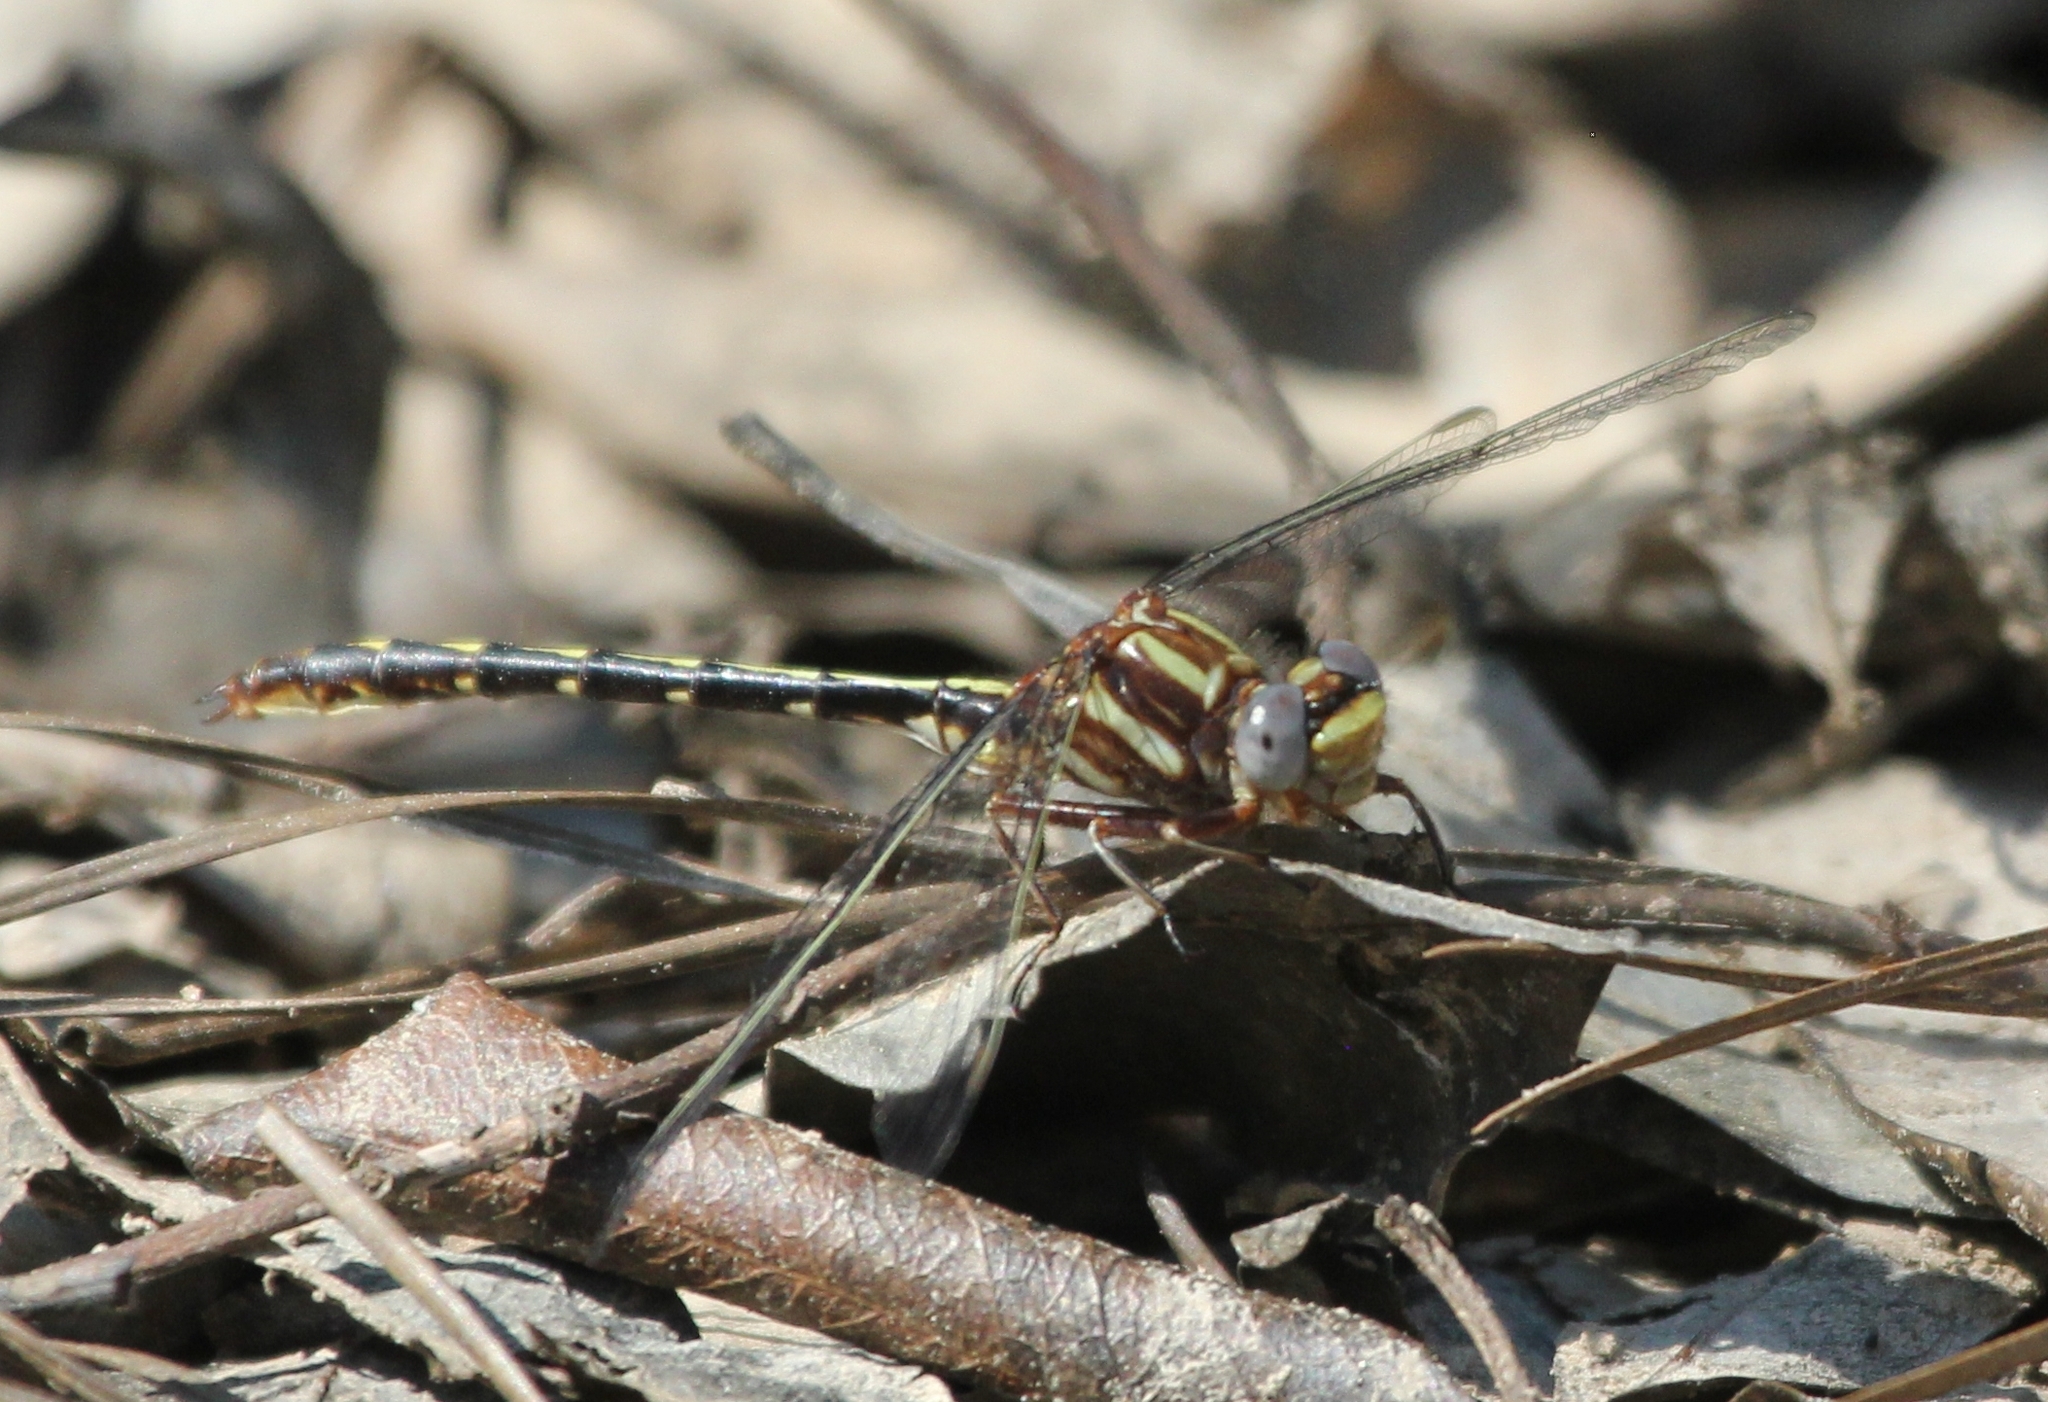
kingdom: Animalia
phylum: Arthropoda
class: Insecta
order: Odonata
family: Gomphidae
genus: Phanogomphus
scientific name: Phanogomphus lividus
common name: Ashy clubtail
